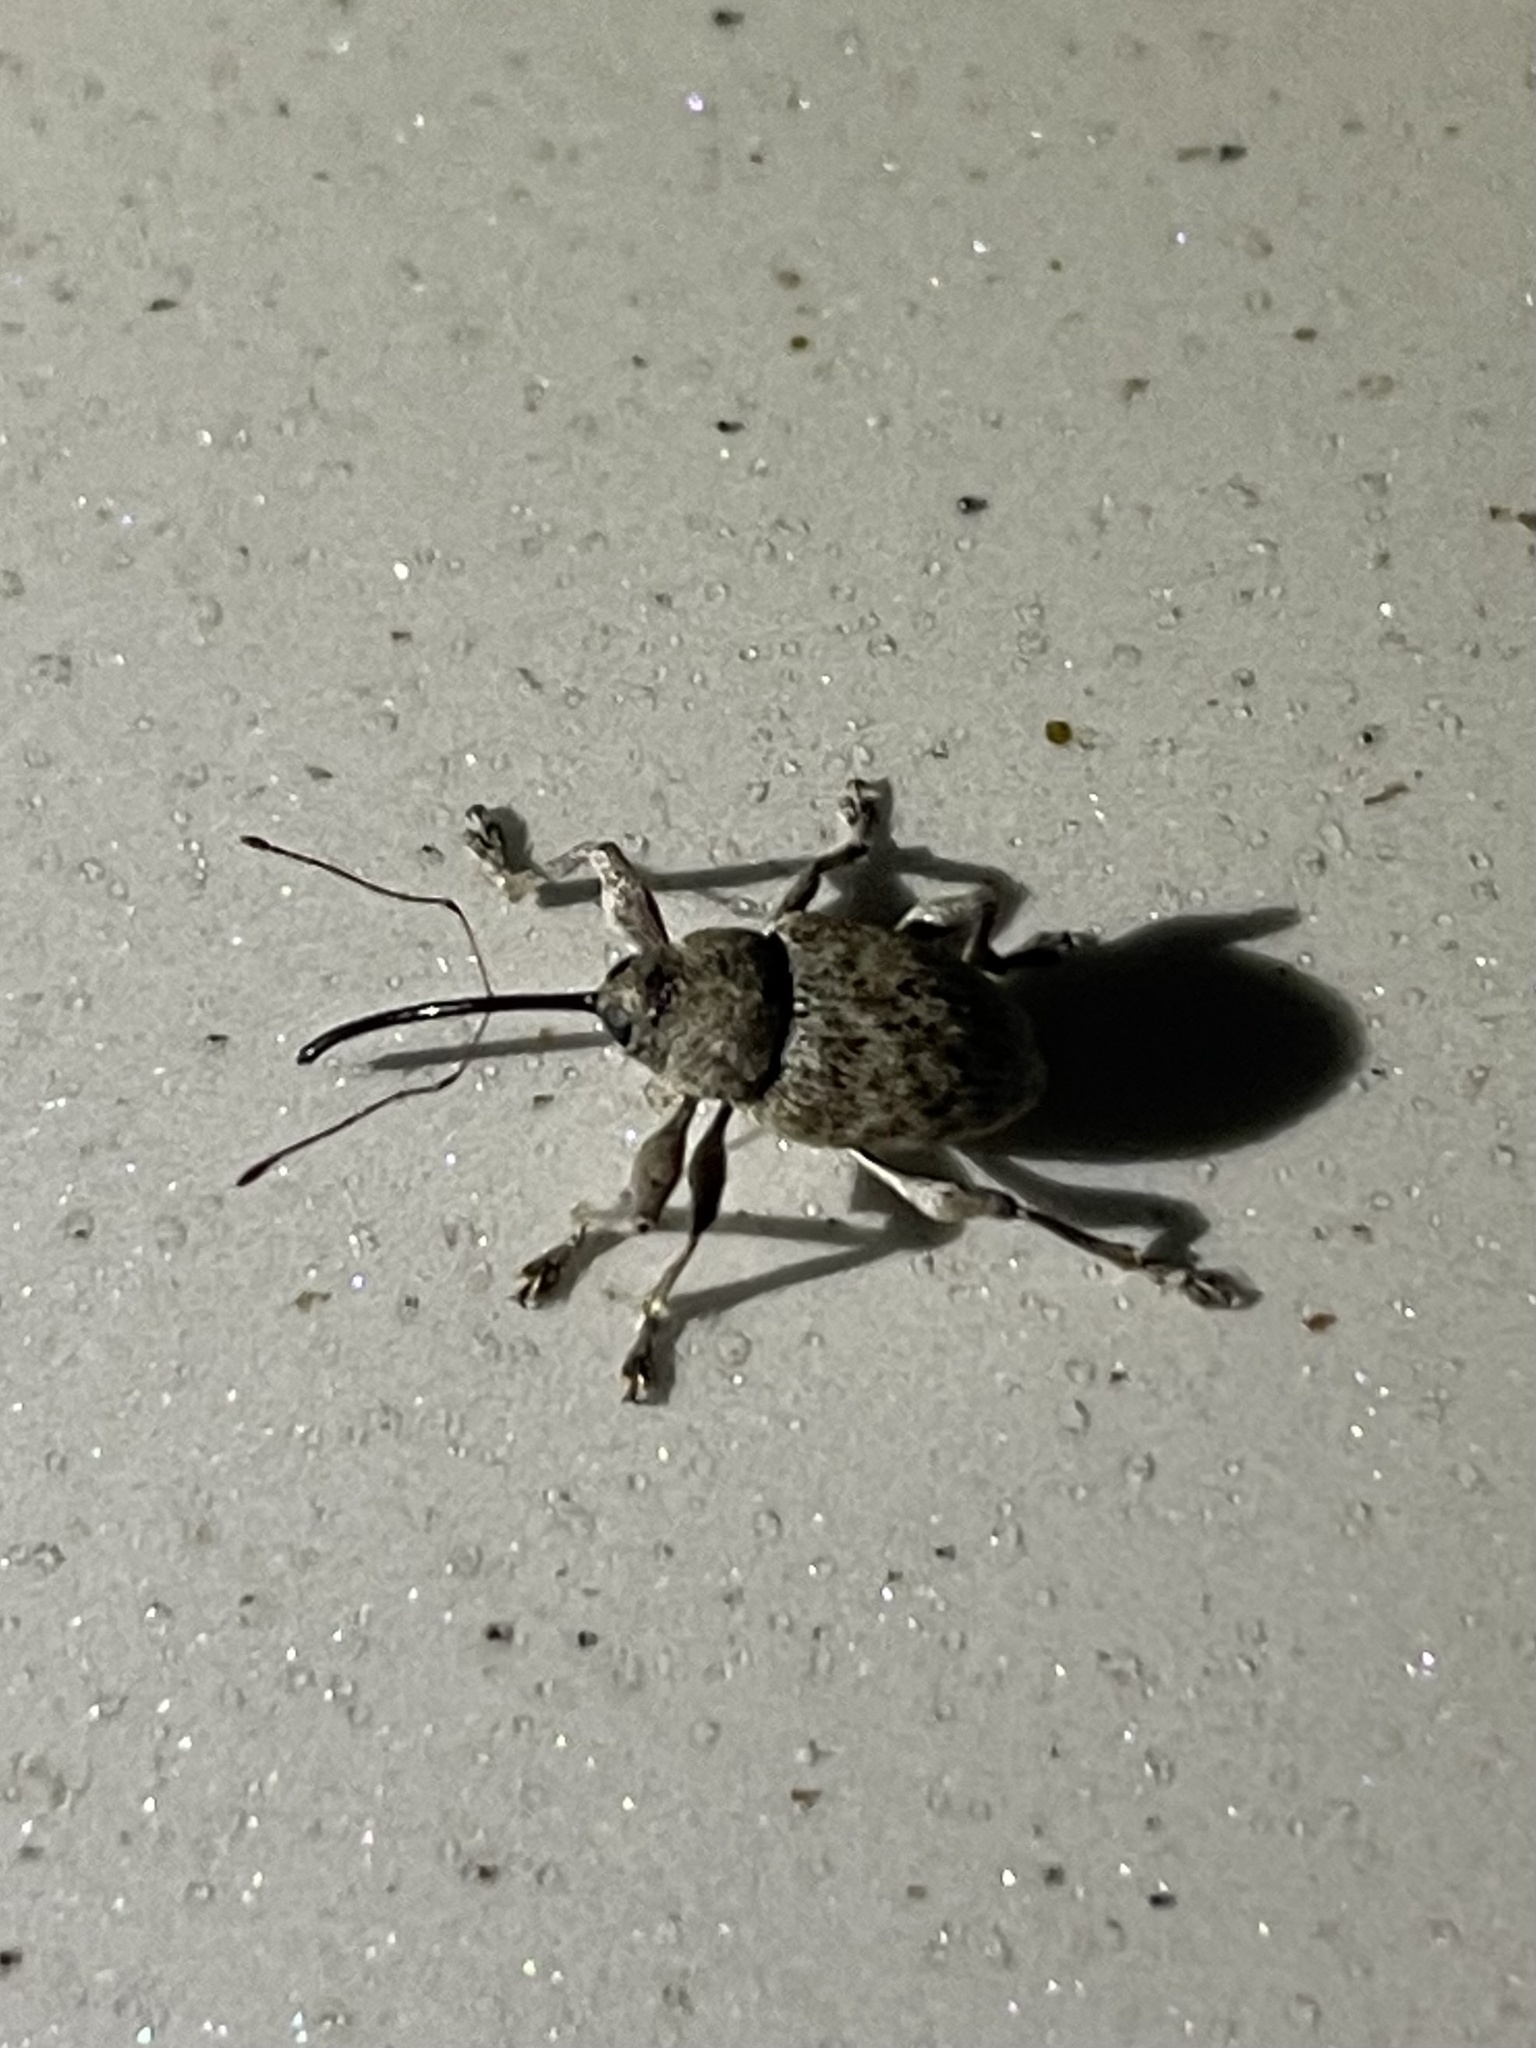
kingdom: Animalia
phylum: Arthropoda
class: Insecta
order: Coleoptera
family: Curculionidae
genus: Curculio
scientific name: Curculio
